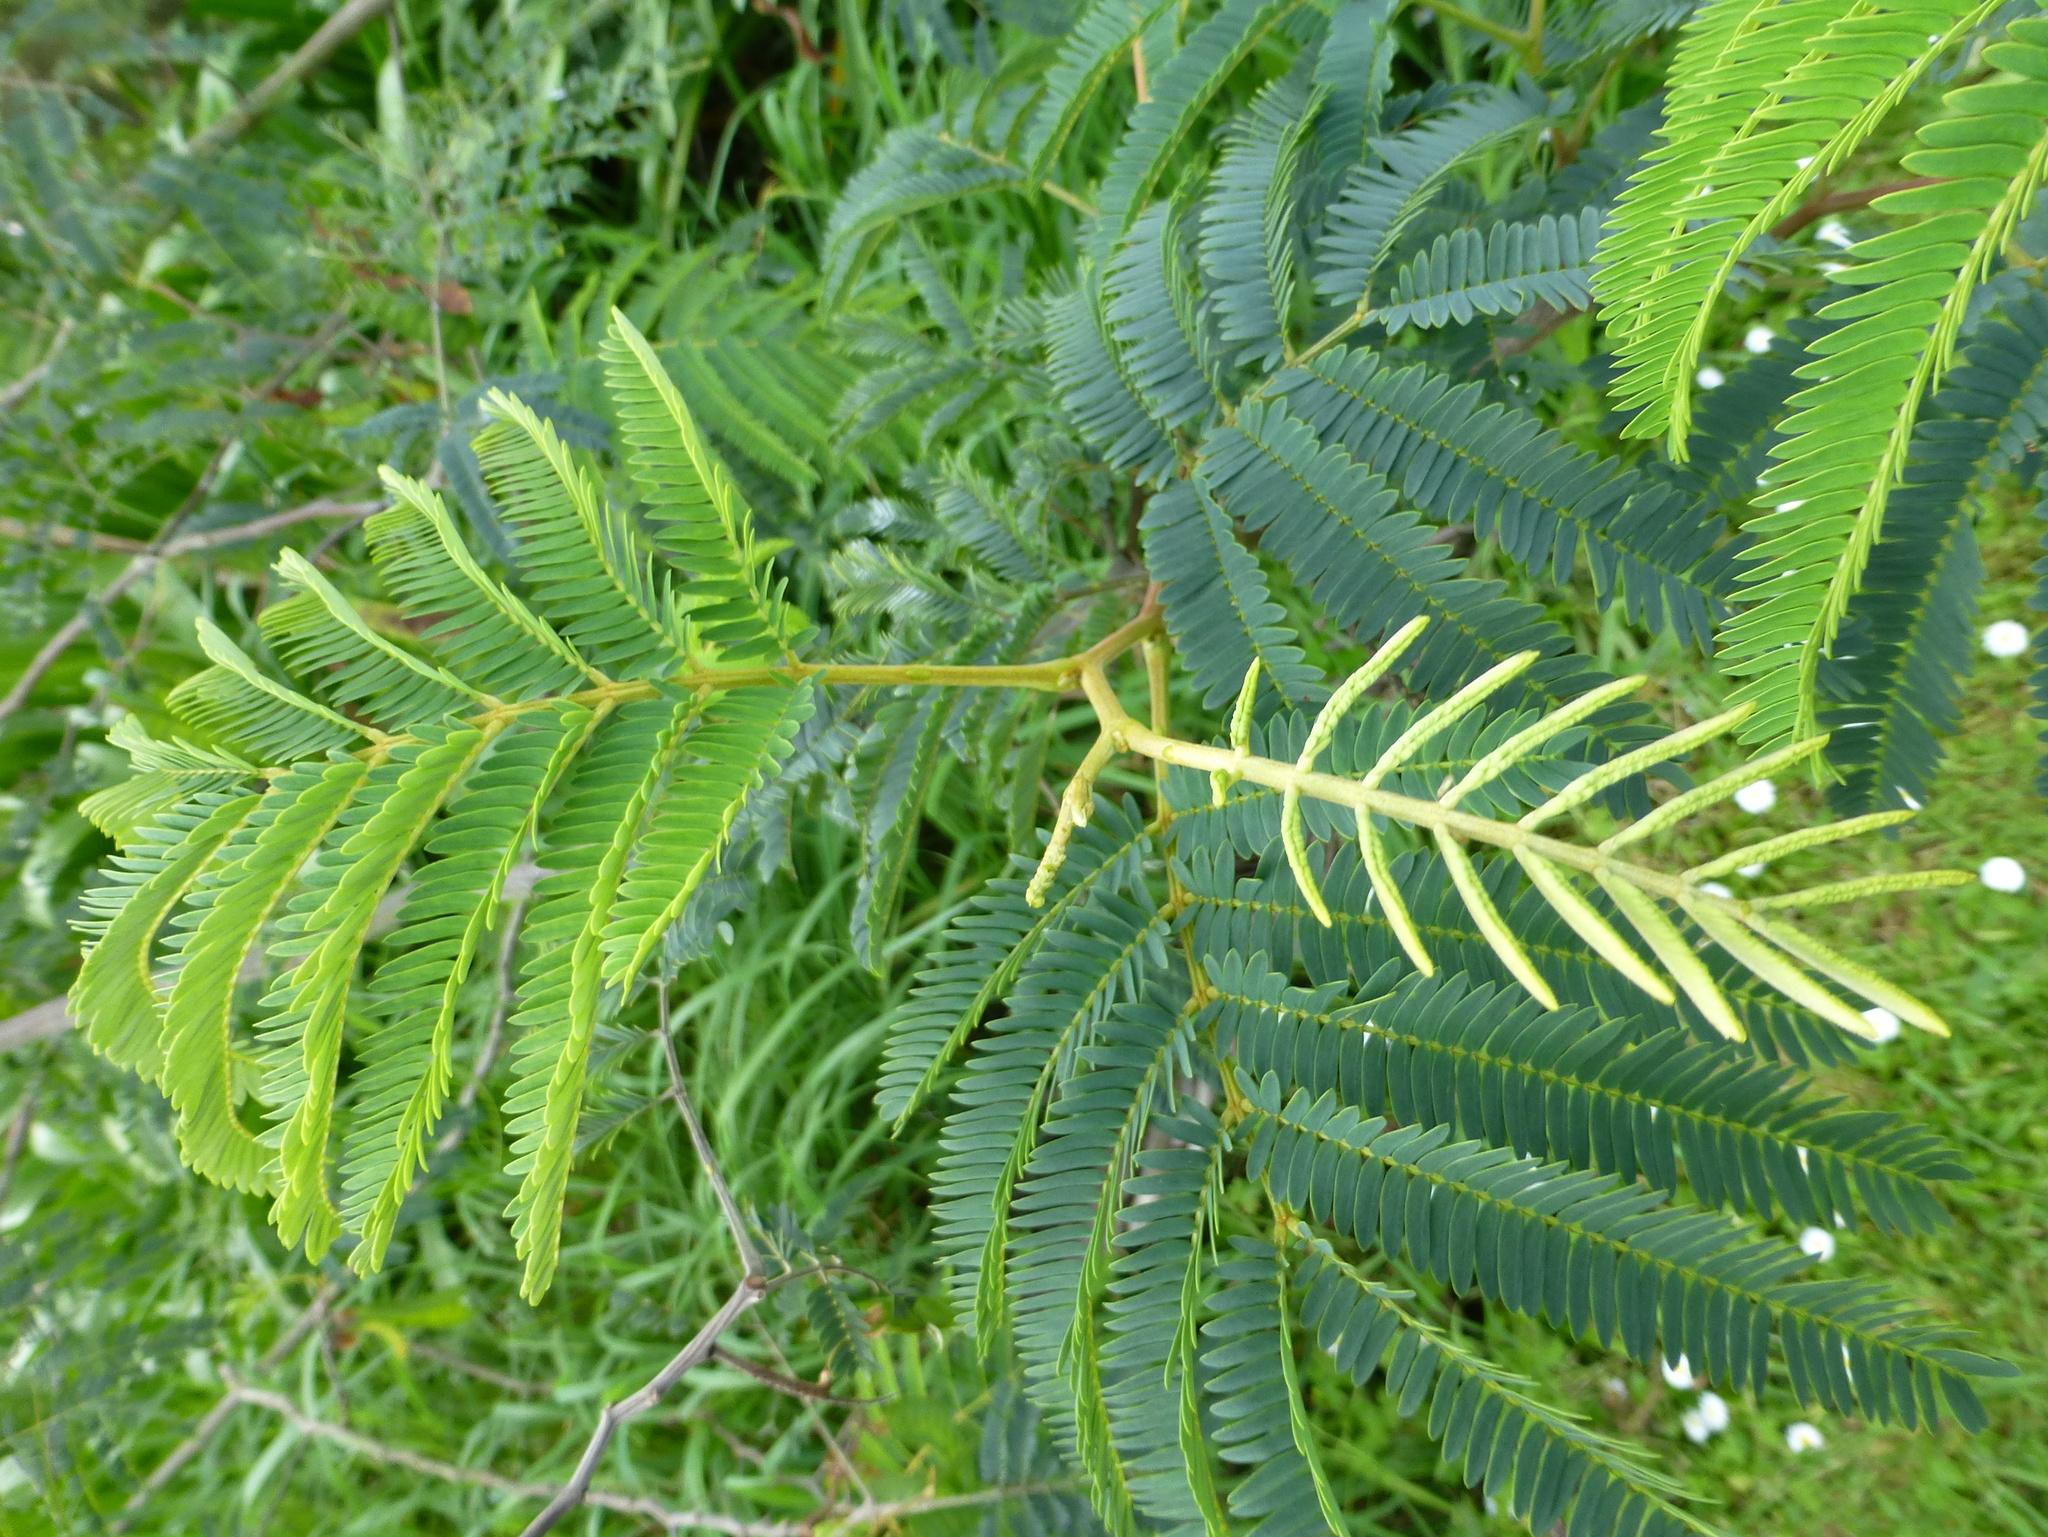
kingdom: Plantae
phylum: Tracheophyta
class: Magnoliopsida
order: Fabales
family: Fabaceae
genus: Paraserianthes
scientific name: Paraserianthes lophantha
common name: Plume albizia
